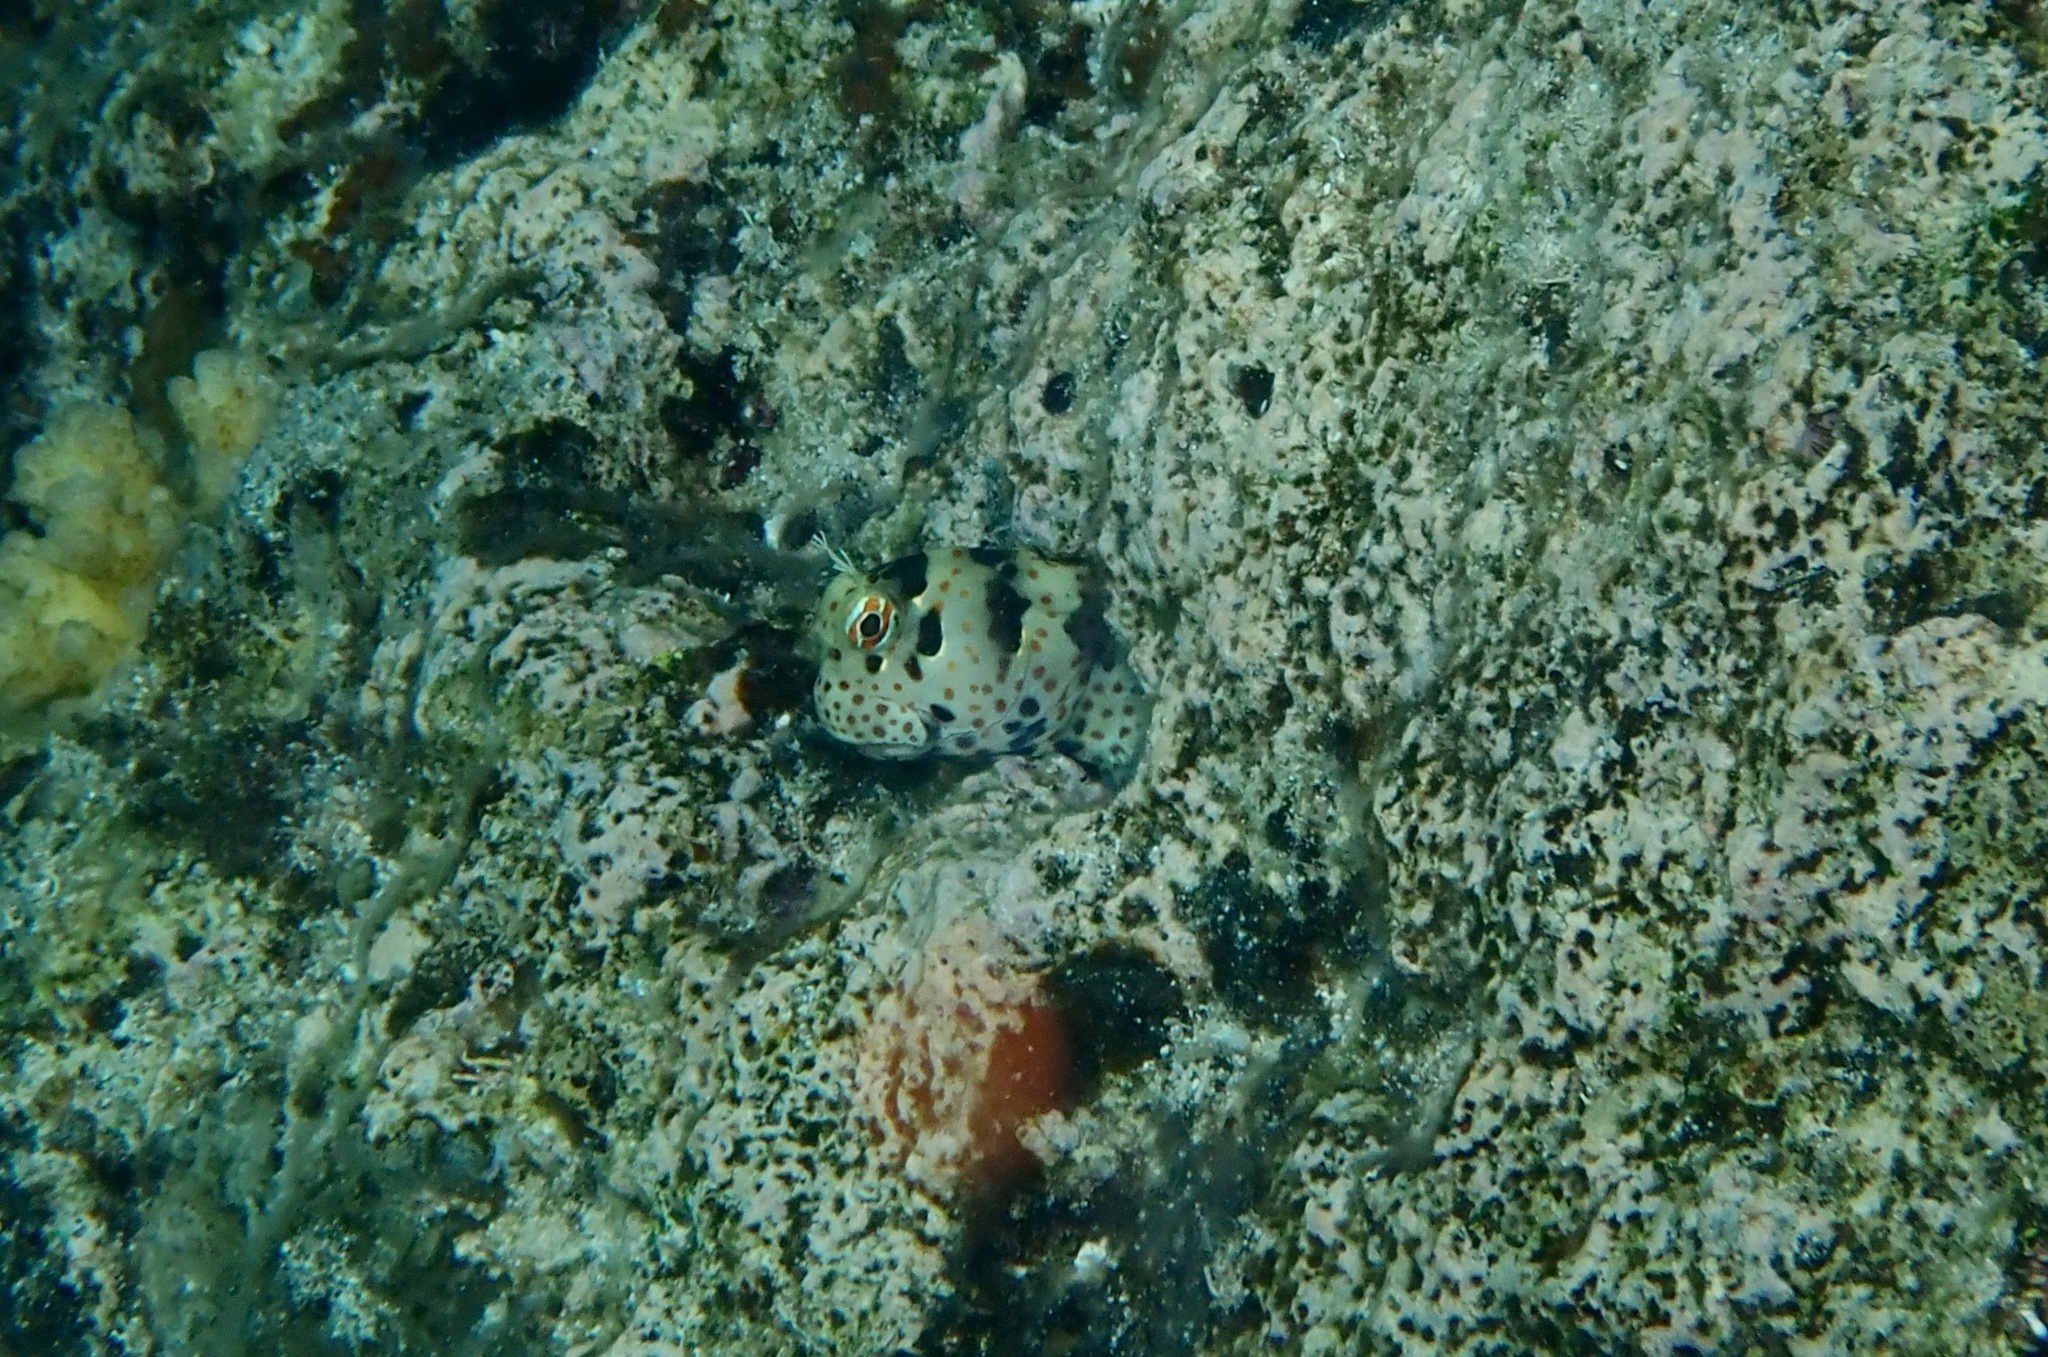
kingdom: Animalia
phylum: Chordata
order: Perciformes
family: Blenniidae
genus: Blenniella
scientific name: Blenniella chrysospilos
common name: Orange-spotted blenny
